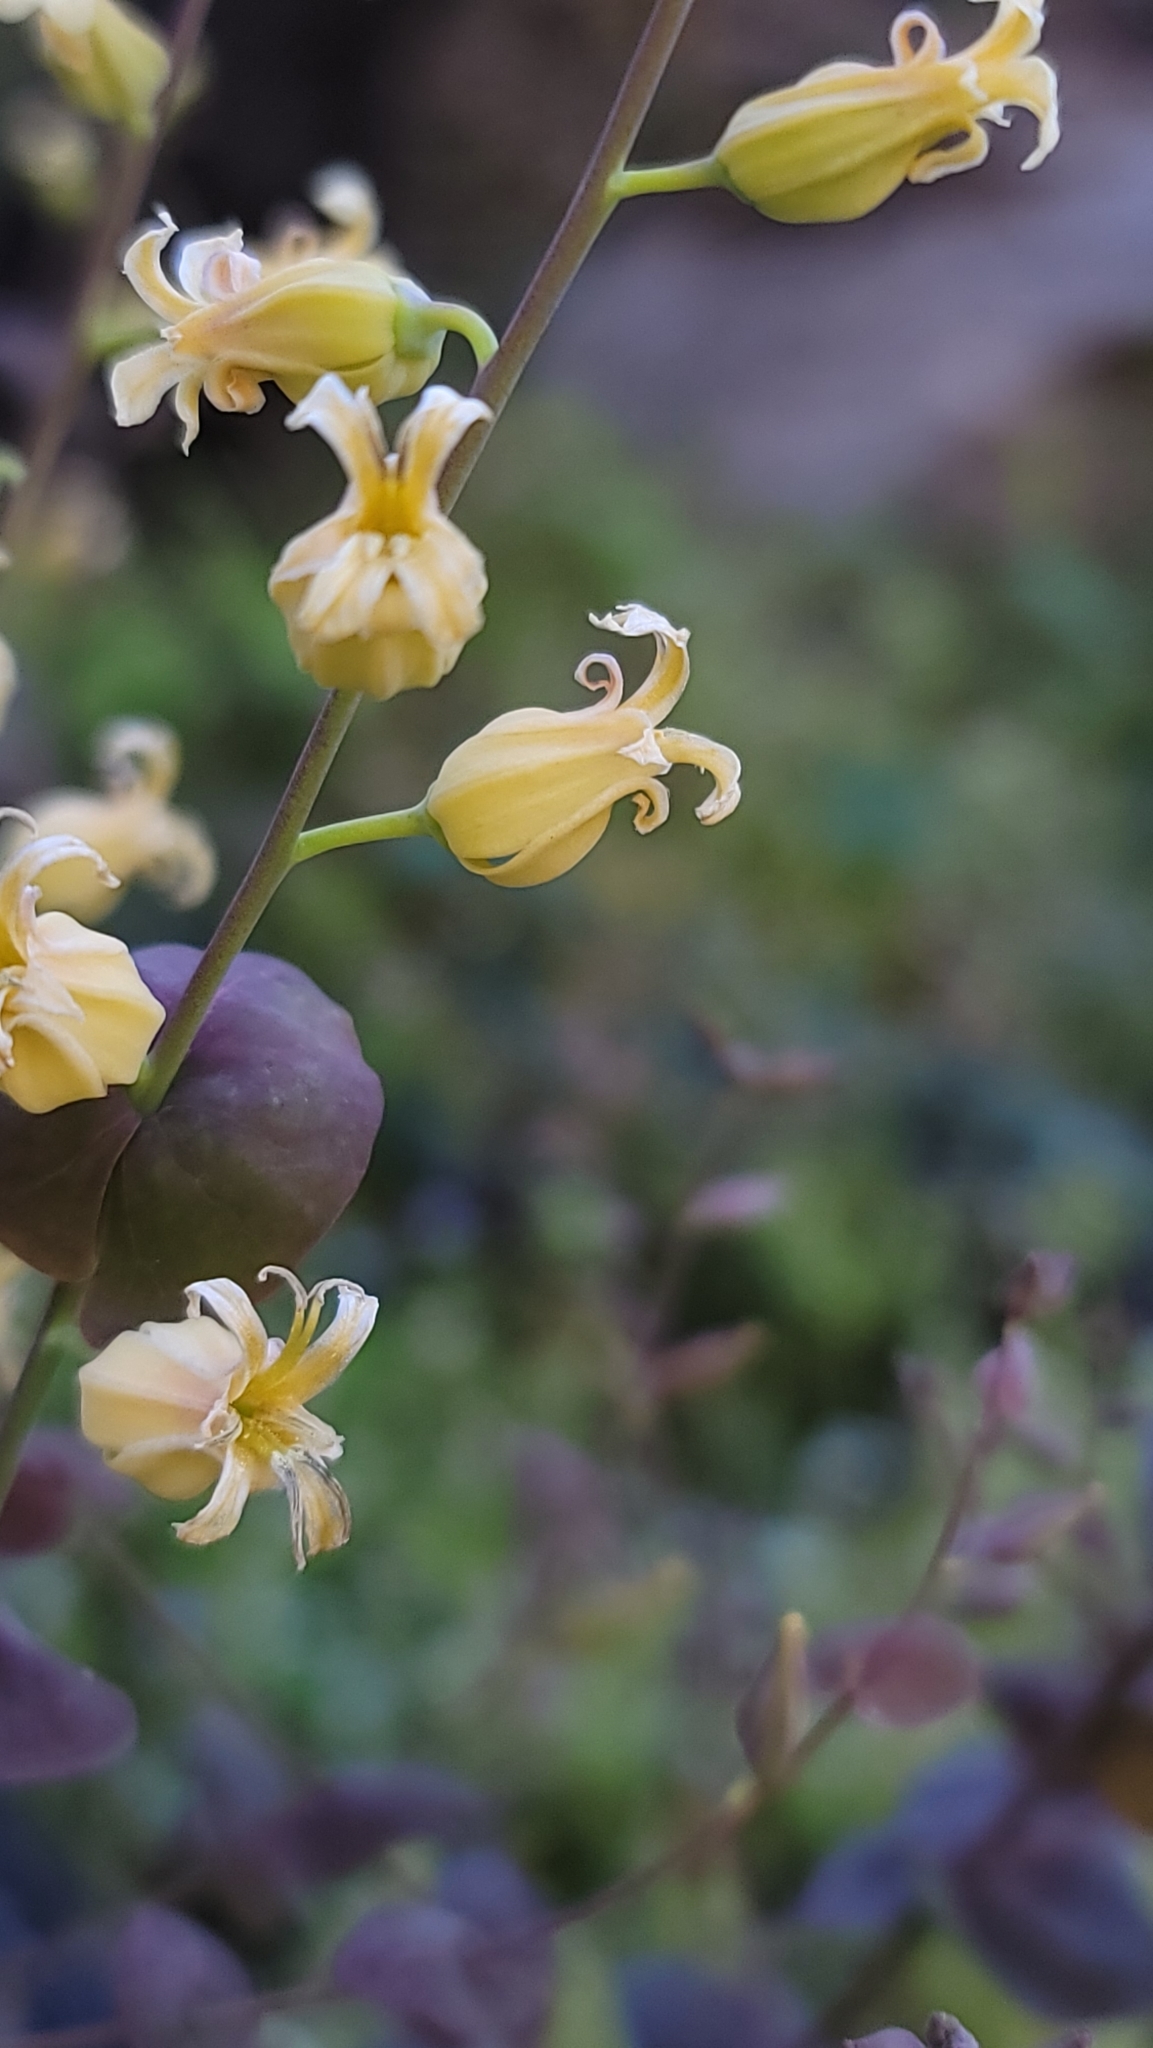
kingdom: Plantae
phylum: Tracheophyta
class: Magnoliopsida
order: Brassicales
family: Brassicaceae
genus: Streptanthus
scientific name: Streptanthus tortuosus
